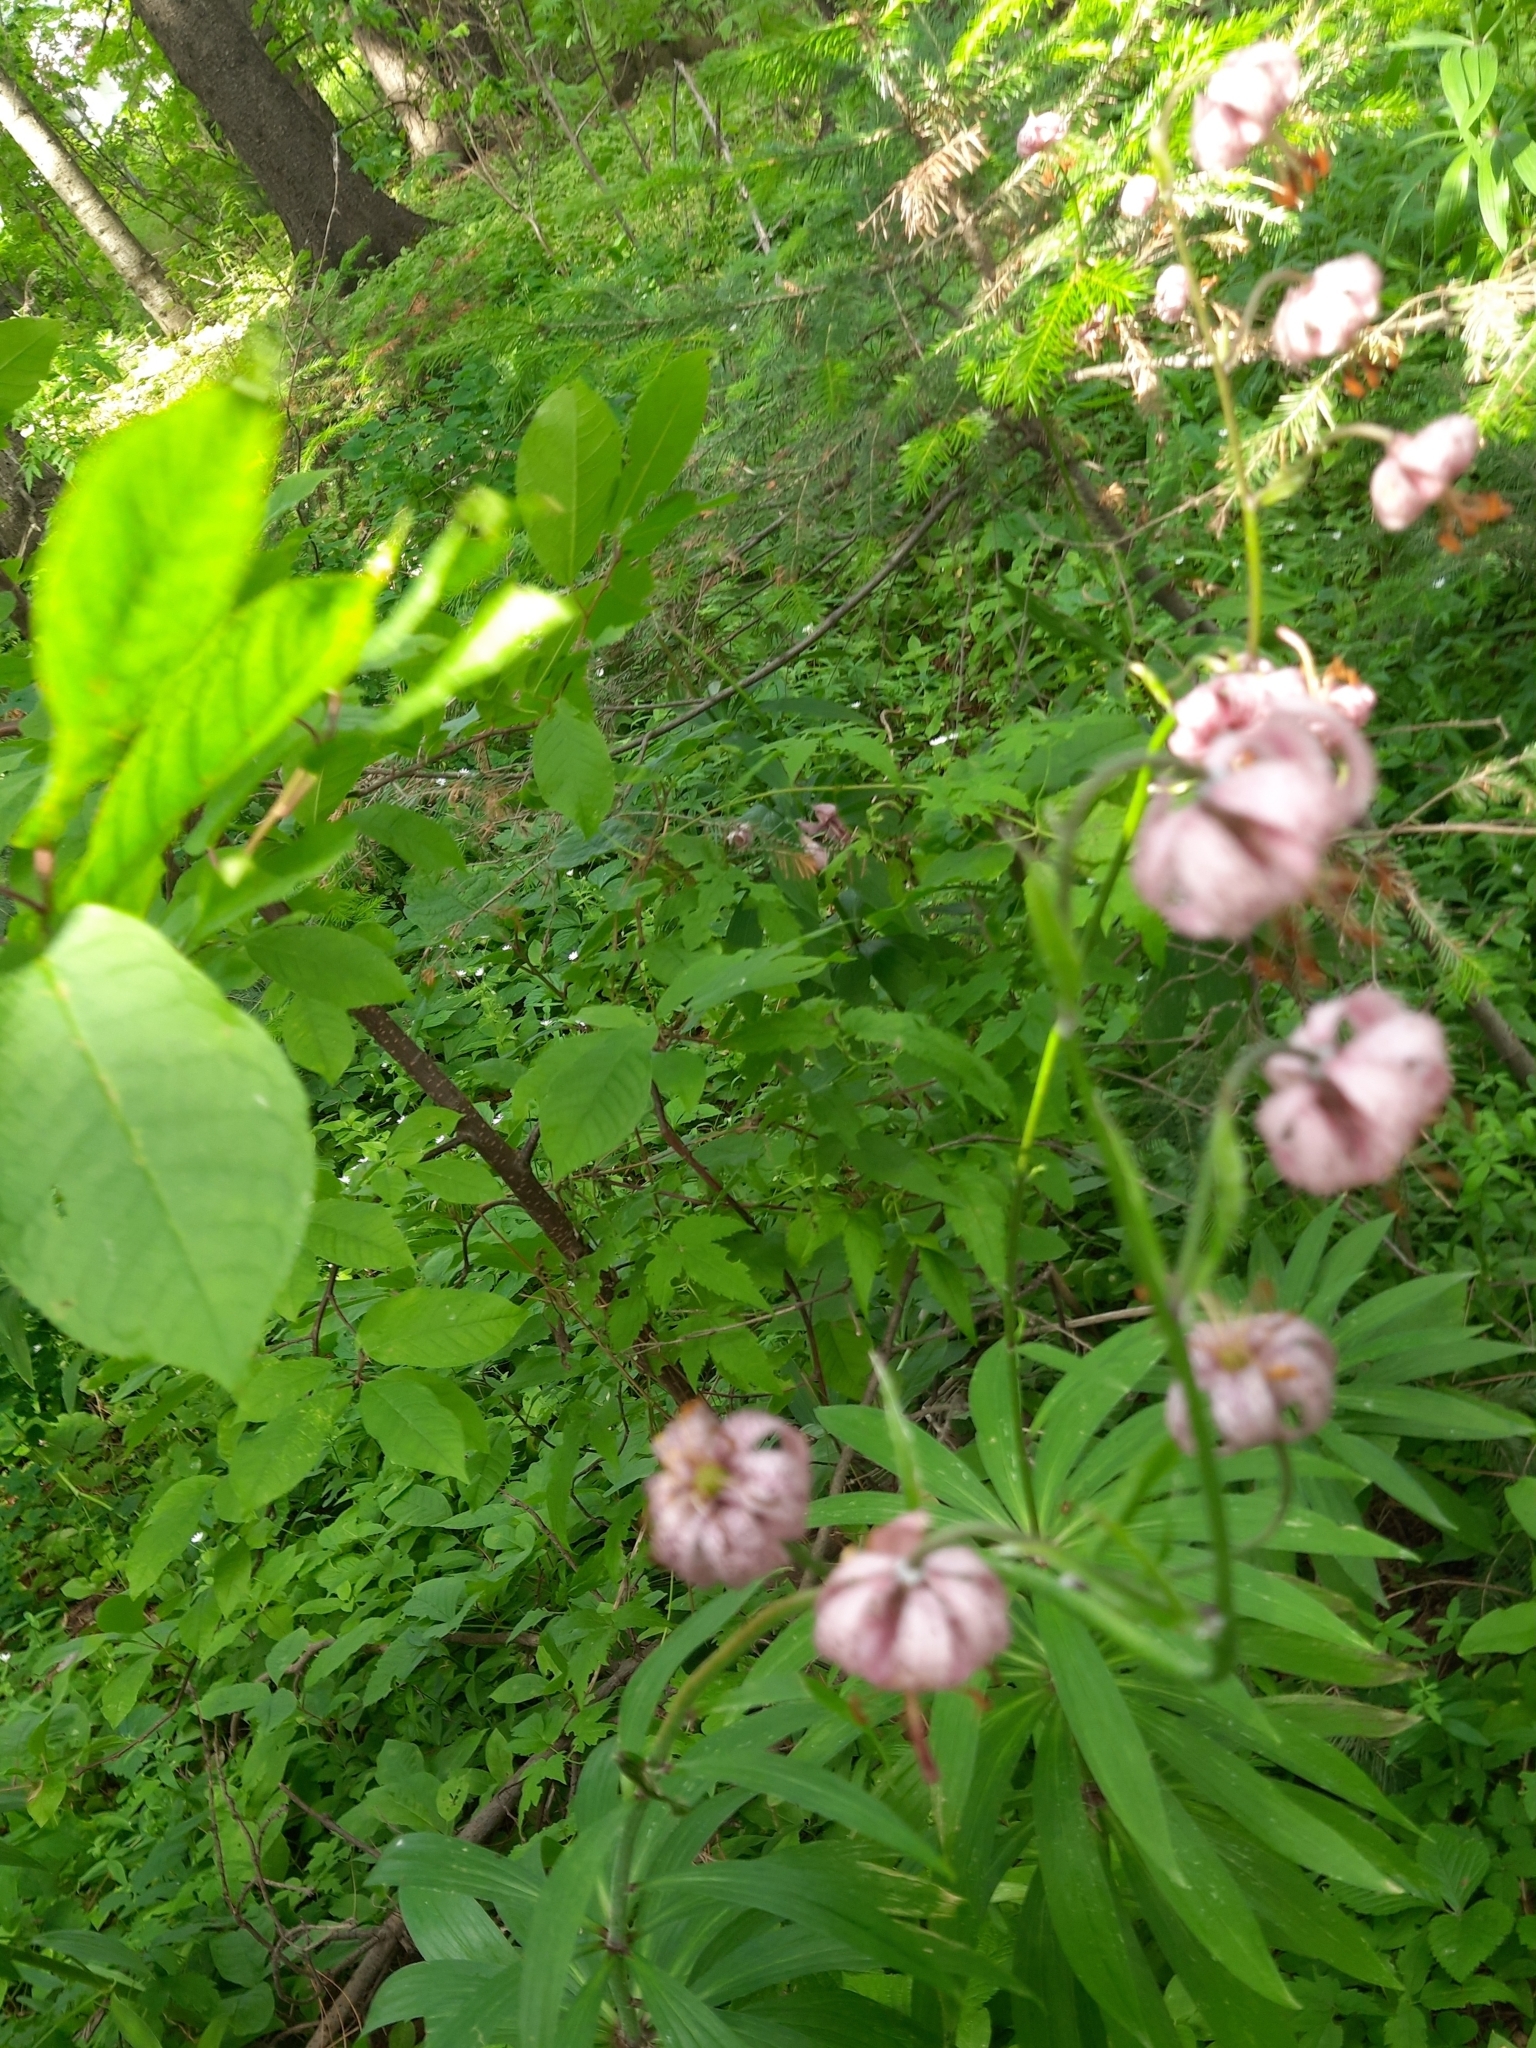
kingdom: Plantae
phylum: Tracheophyta
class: Liliopsida
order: Liliales
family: Liliaceae
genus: Lilium
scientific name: Lilium martagon
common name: Martagon lily
